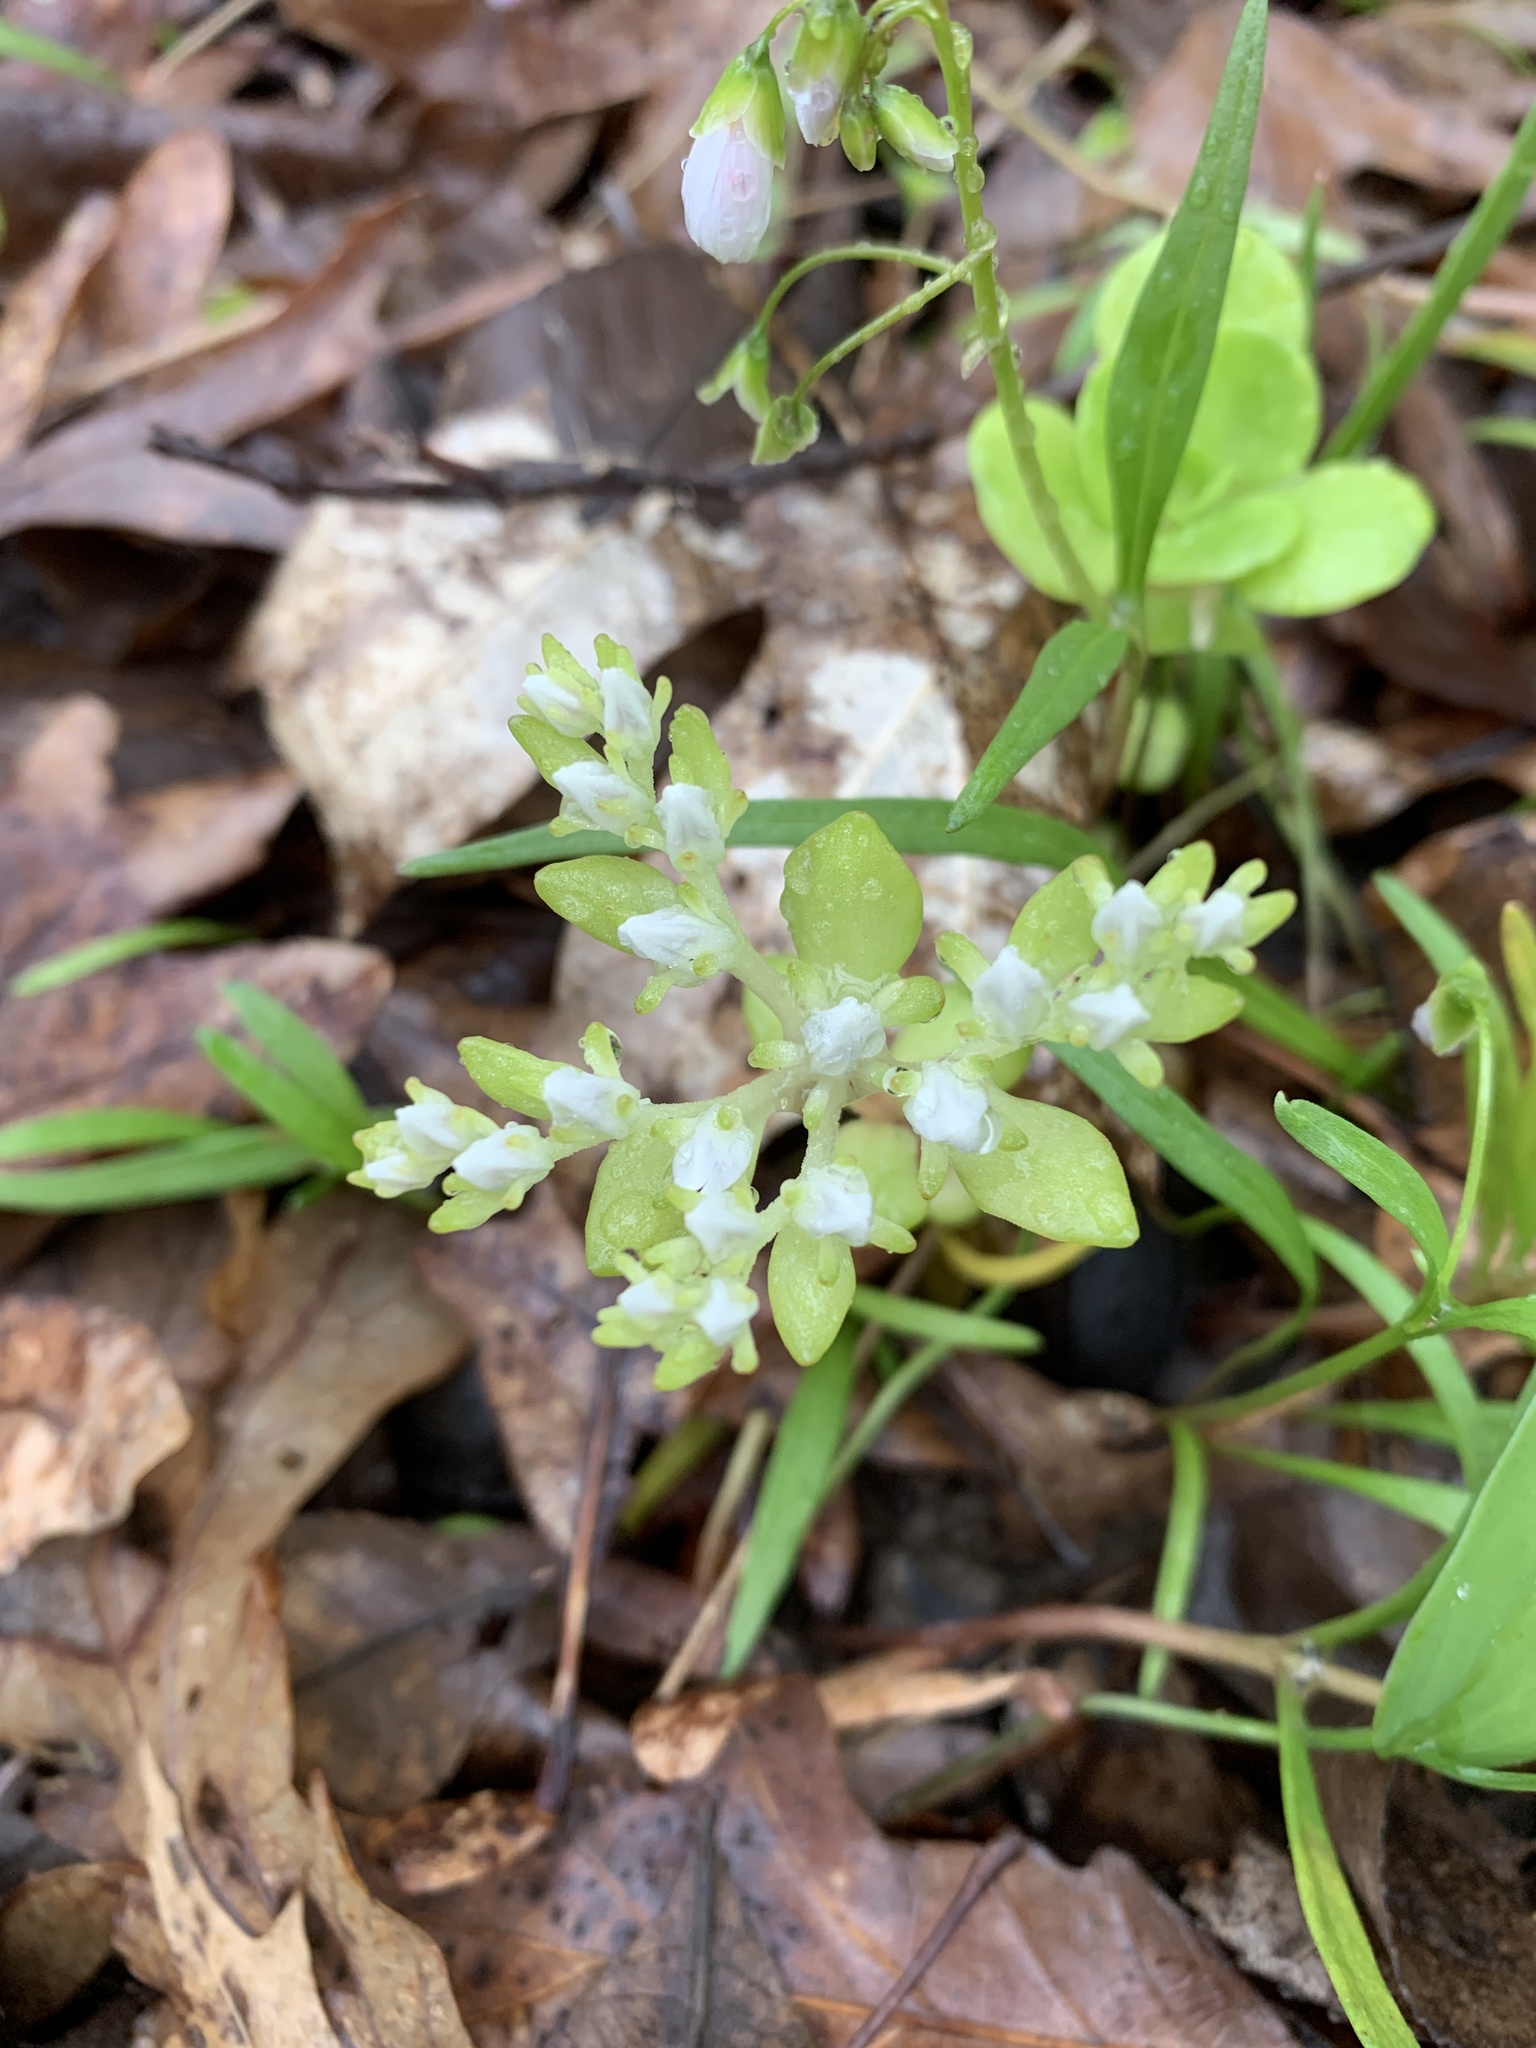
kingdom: Plantae
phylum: Tracheophyta
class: Magnoliopsida
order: Saxifragales
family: Crassulaceae
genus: Sedum
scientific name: Sedum ternatum
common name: Wild stonecrop
